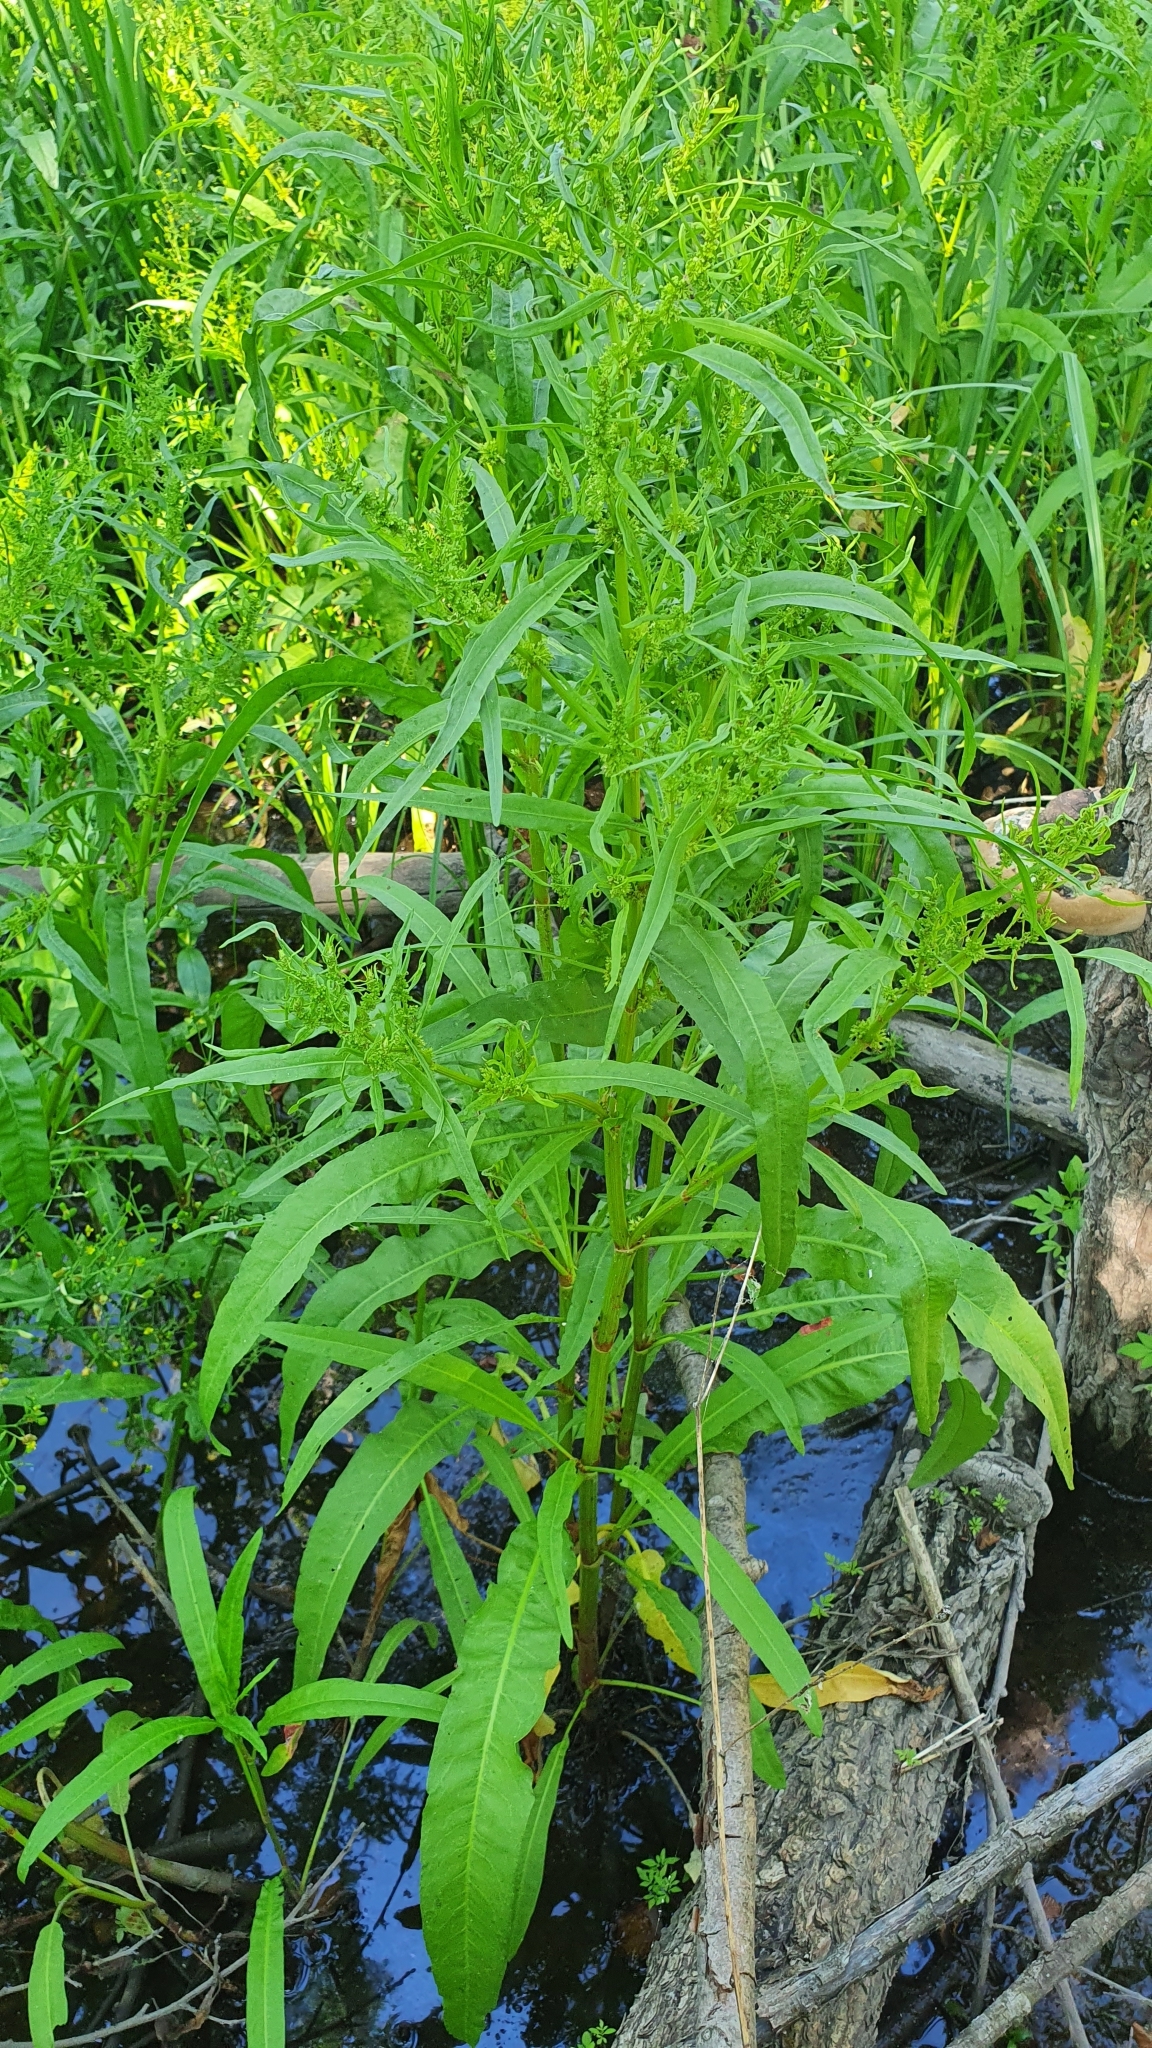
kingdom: Plantae
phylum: Tracheophyta
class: Magnoliopsida
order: Caryophyllales
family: Polygonaceae
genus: Rumex
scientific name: Rumex maritimus
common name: Golden dock
